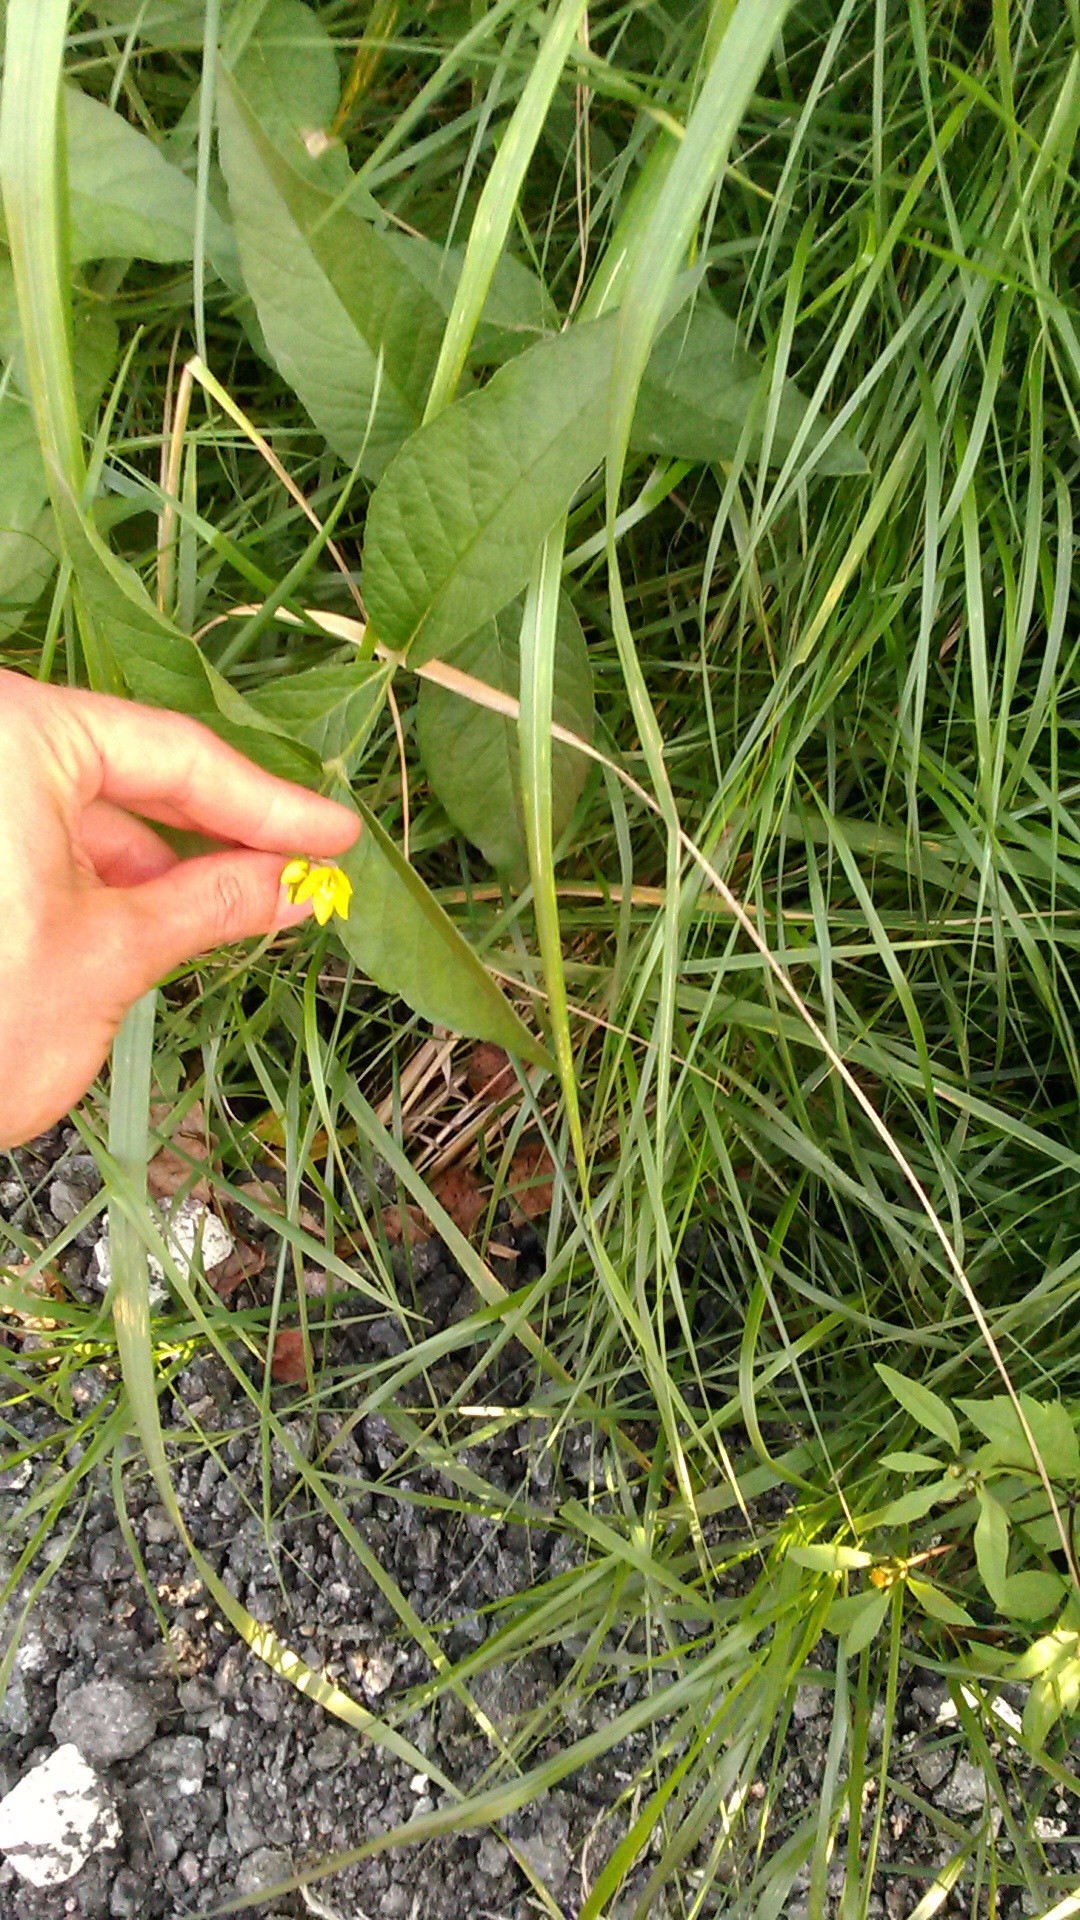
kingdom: Plantae
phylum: Tracheophyta
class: Magnoliopsida
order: Ericales
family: Primulaceae
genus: Lysimachia
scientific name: Lysimachia vulgaris
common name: Yellow loosestrife
